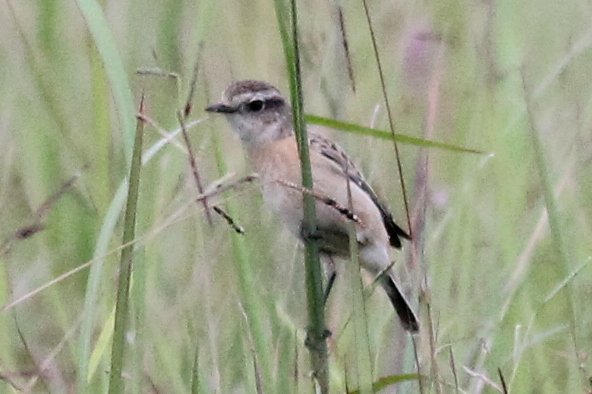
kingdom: Animalia
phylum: Chordata
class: Aves
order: Passeriformes
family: Muscicapidae
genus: Saxicola
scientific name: Saxicola stejnegeri
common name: Stejneger's stonechat
